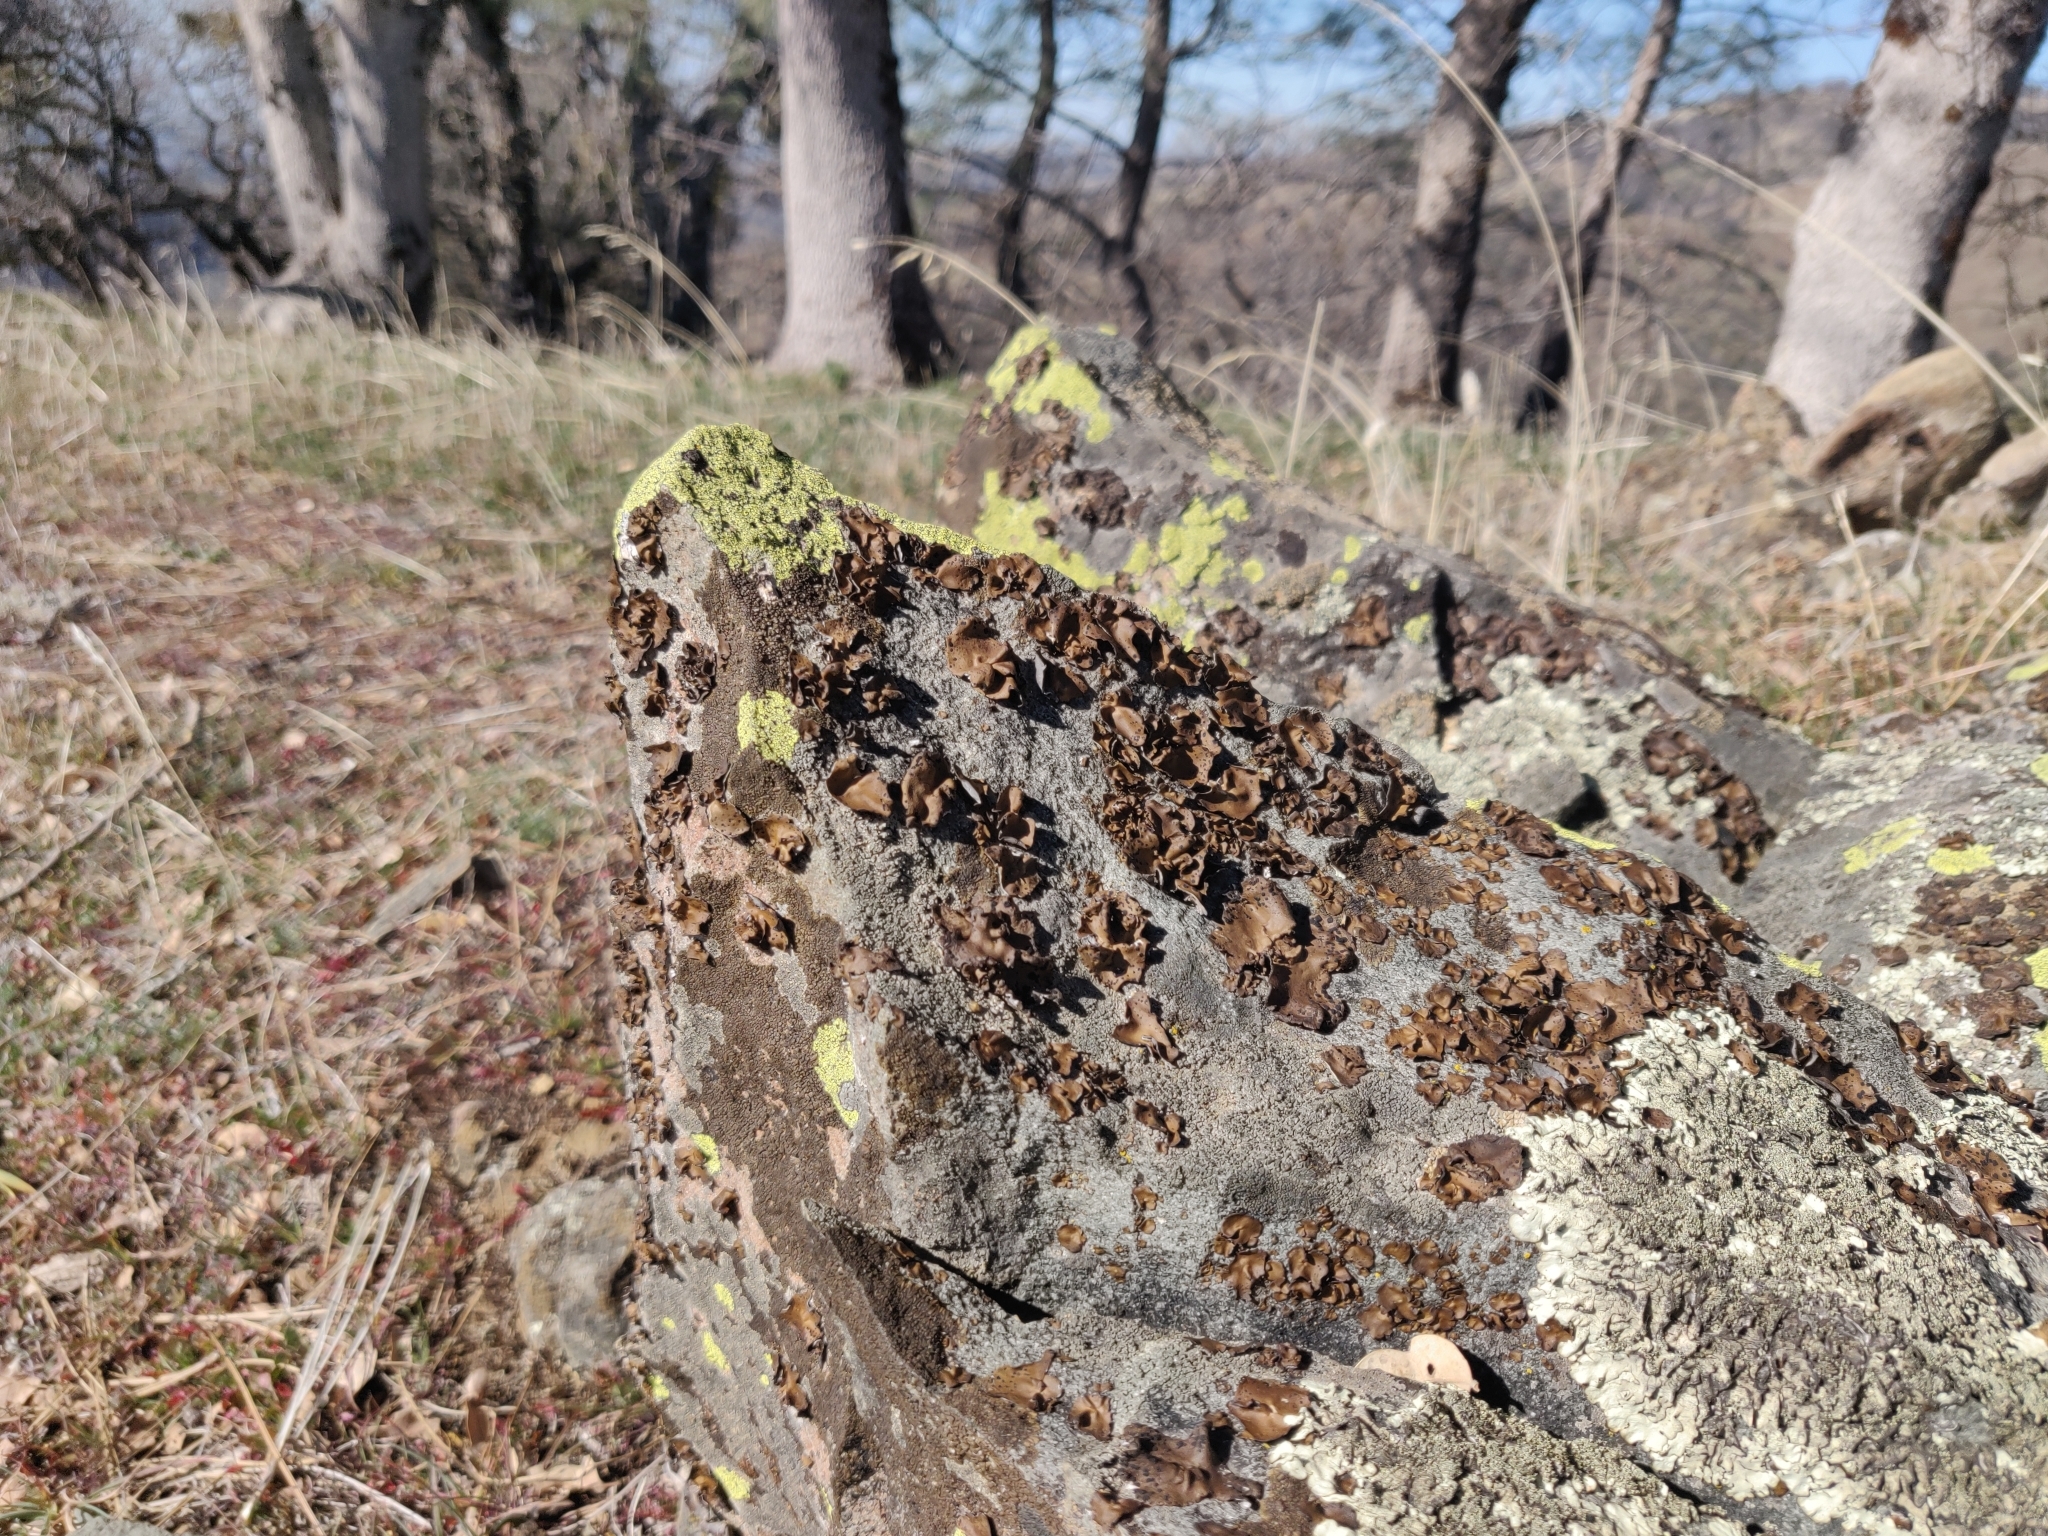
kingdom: Fungi
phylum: Ascomycota
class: Lecanoromycetes
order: Umbilicariales
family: Umbilicariaceae
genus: Umbilicaria
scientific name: Umbilicaria phaea
